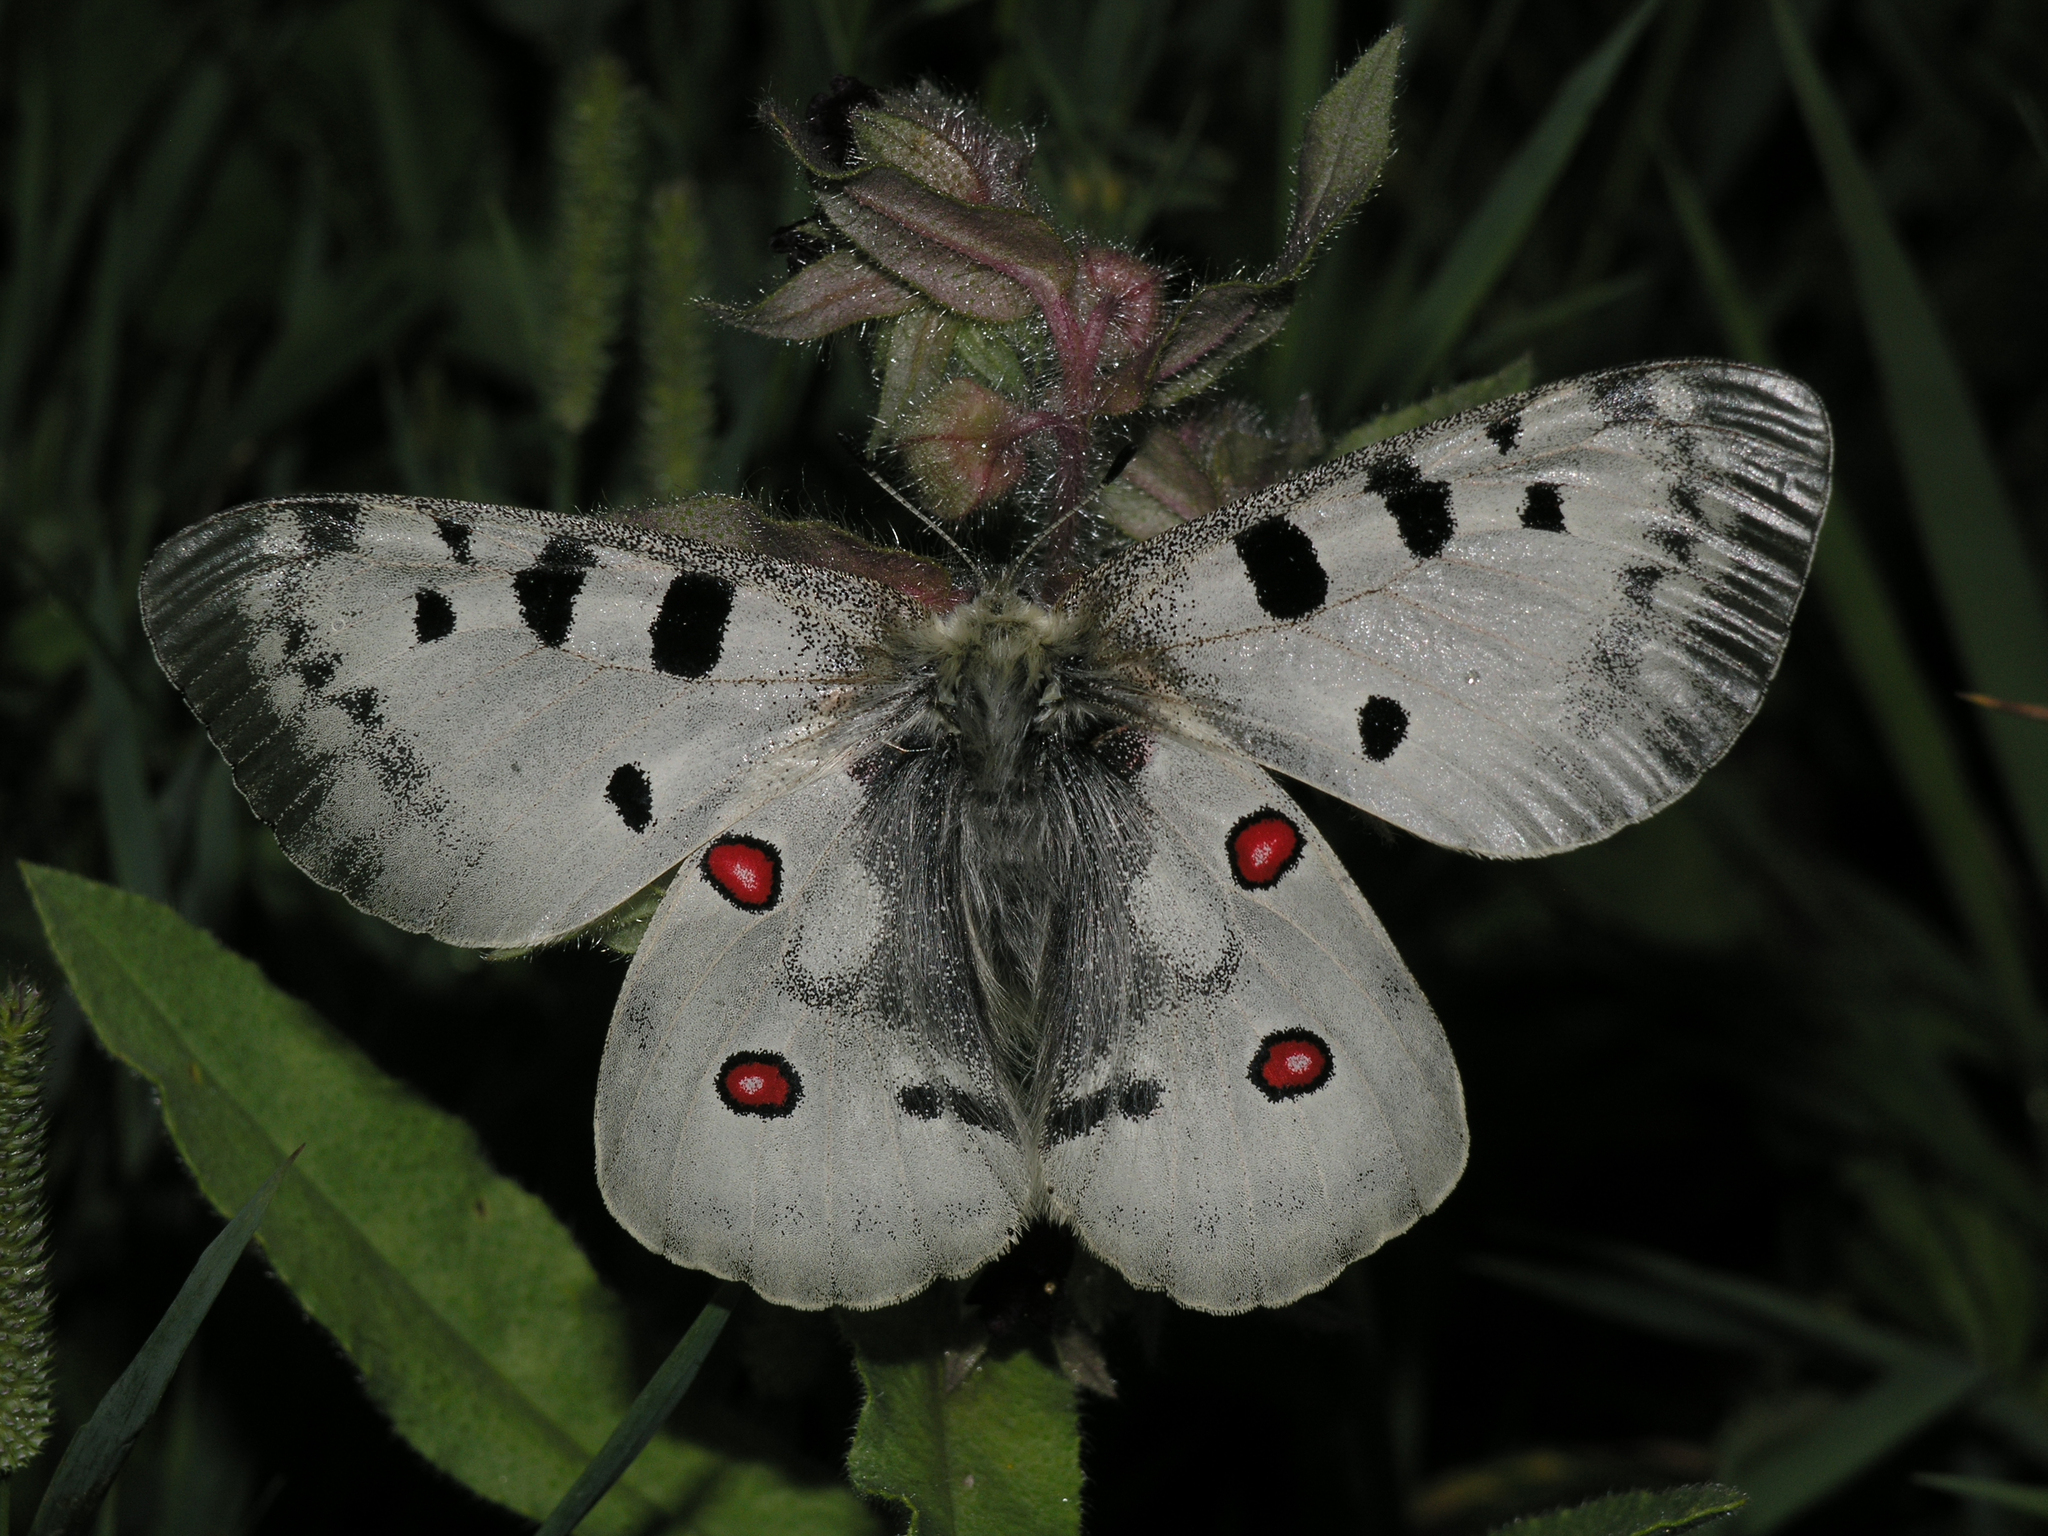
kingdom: Animalia
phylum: Arthropoda
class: Insecta
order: Lepidoptera
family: Papilionidae
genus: Parnassius
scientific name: Parnassius apollo
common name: Apollo
